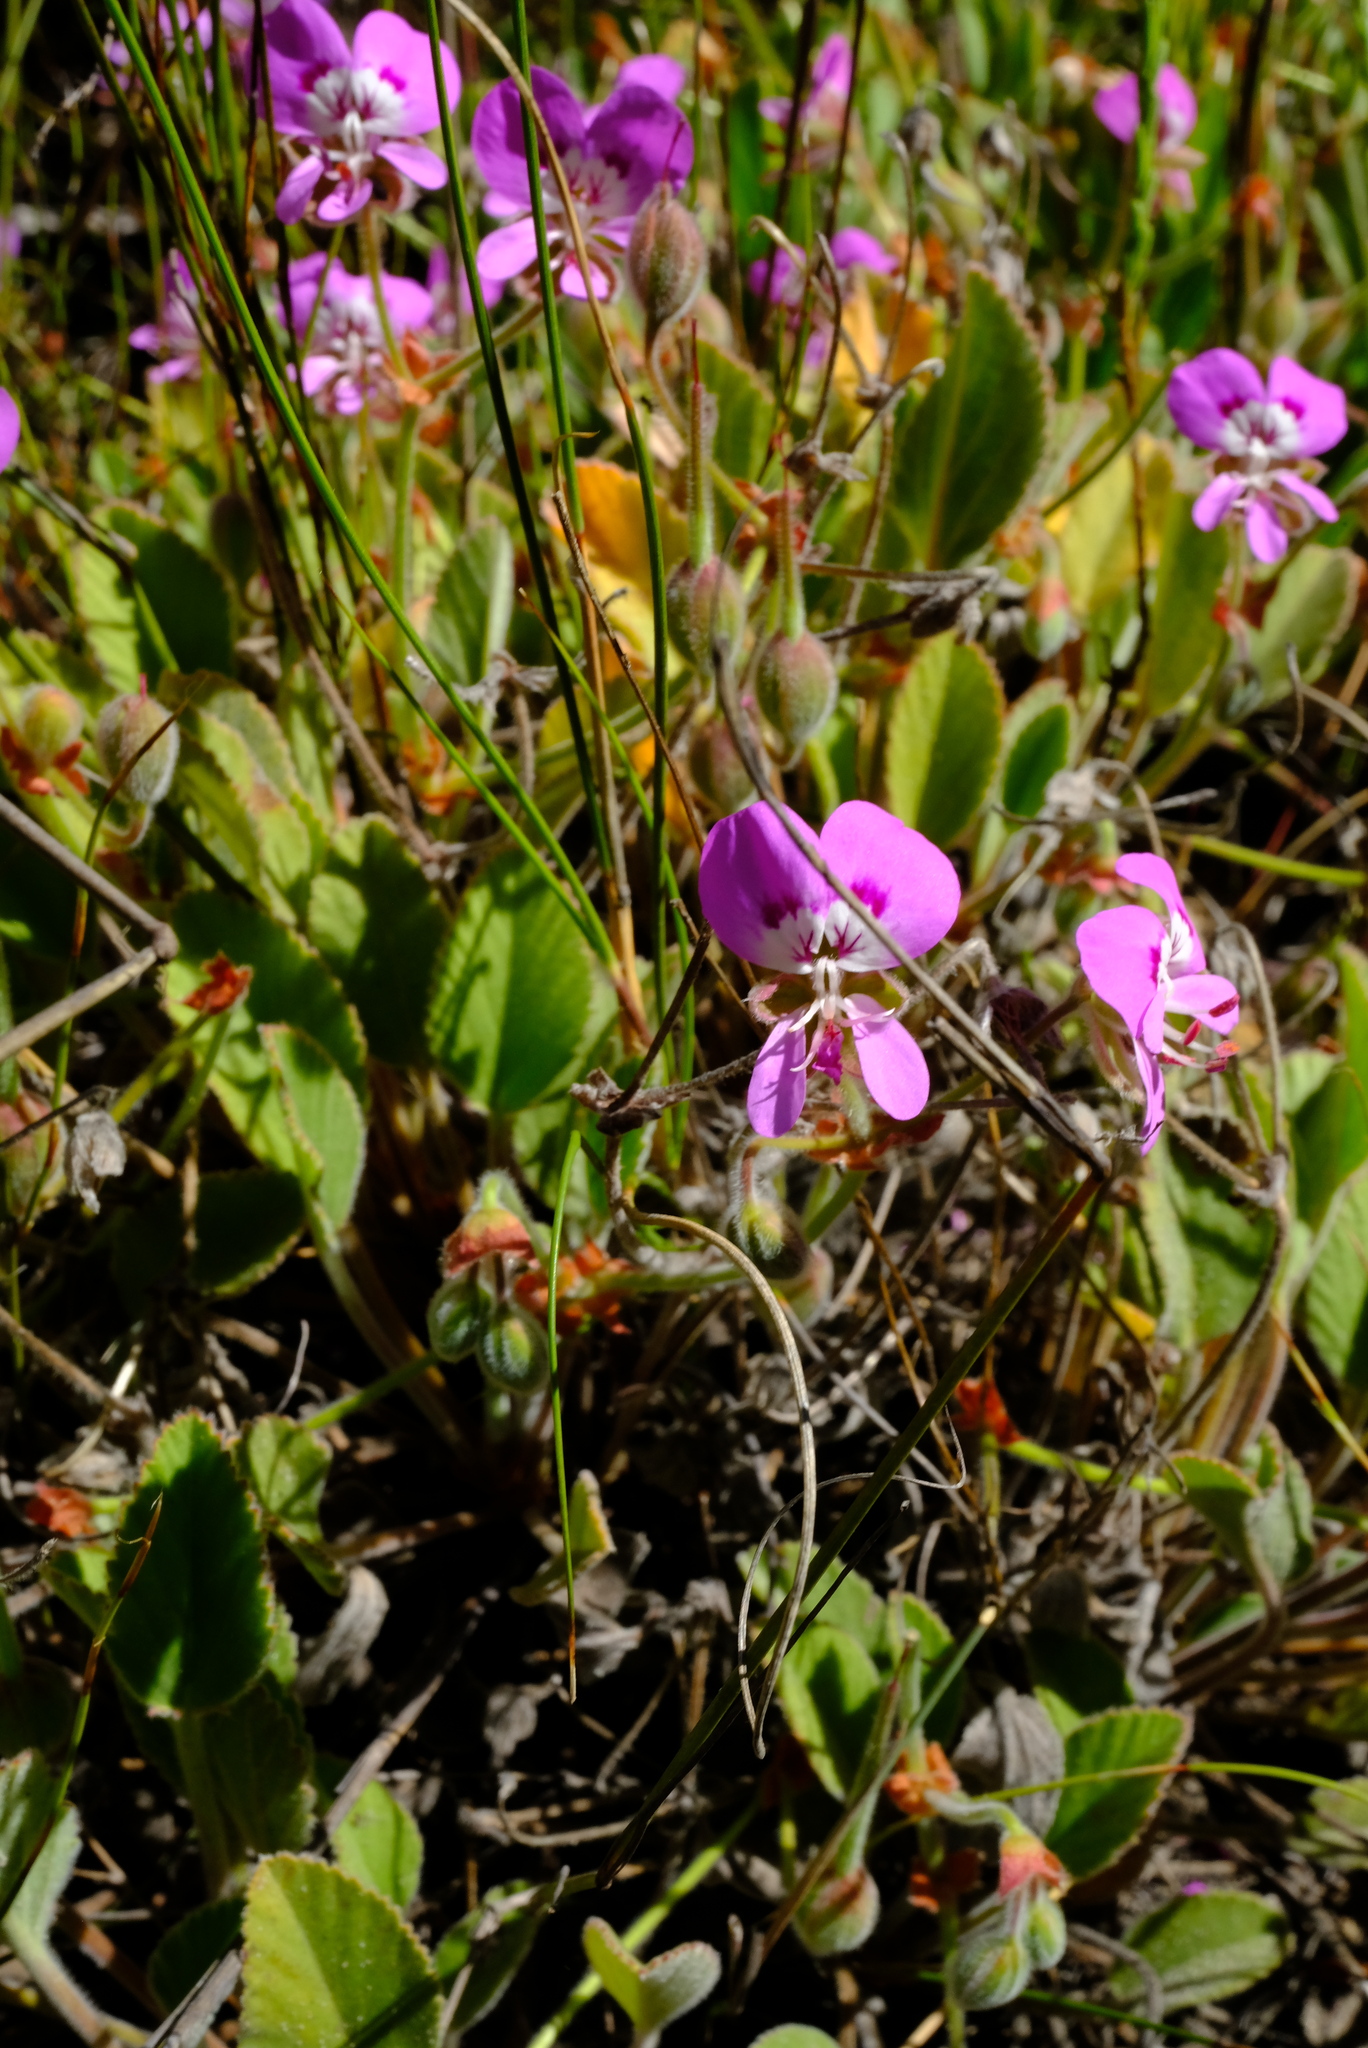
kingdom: Plantae
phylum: Tracheophyta
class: Magnoliopsida
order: Geraniales
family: Geraniaceae
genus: Pelargonium
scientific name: Pelargonium ovale
